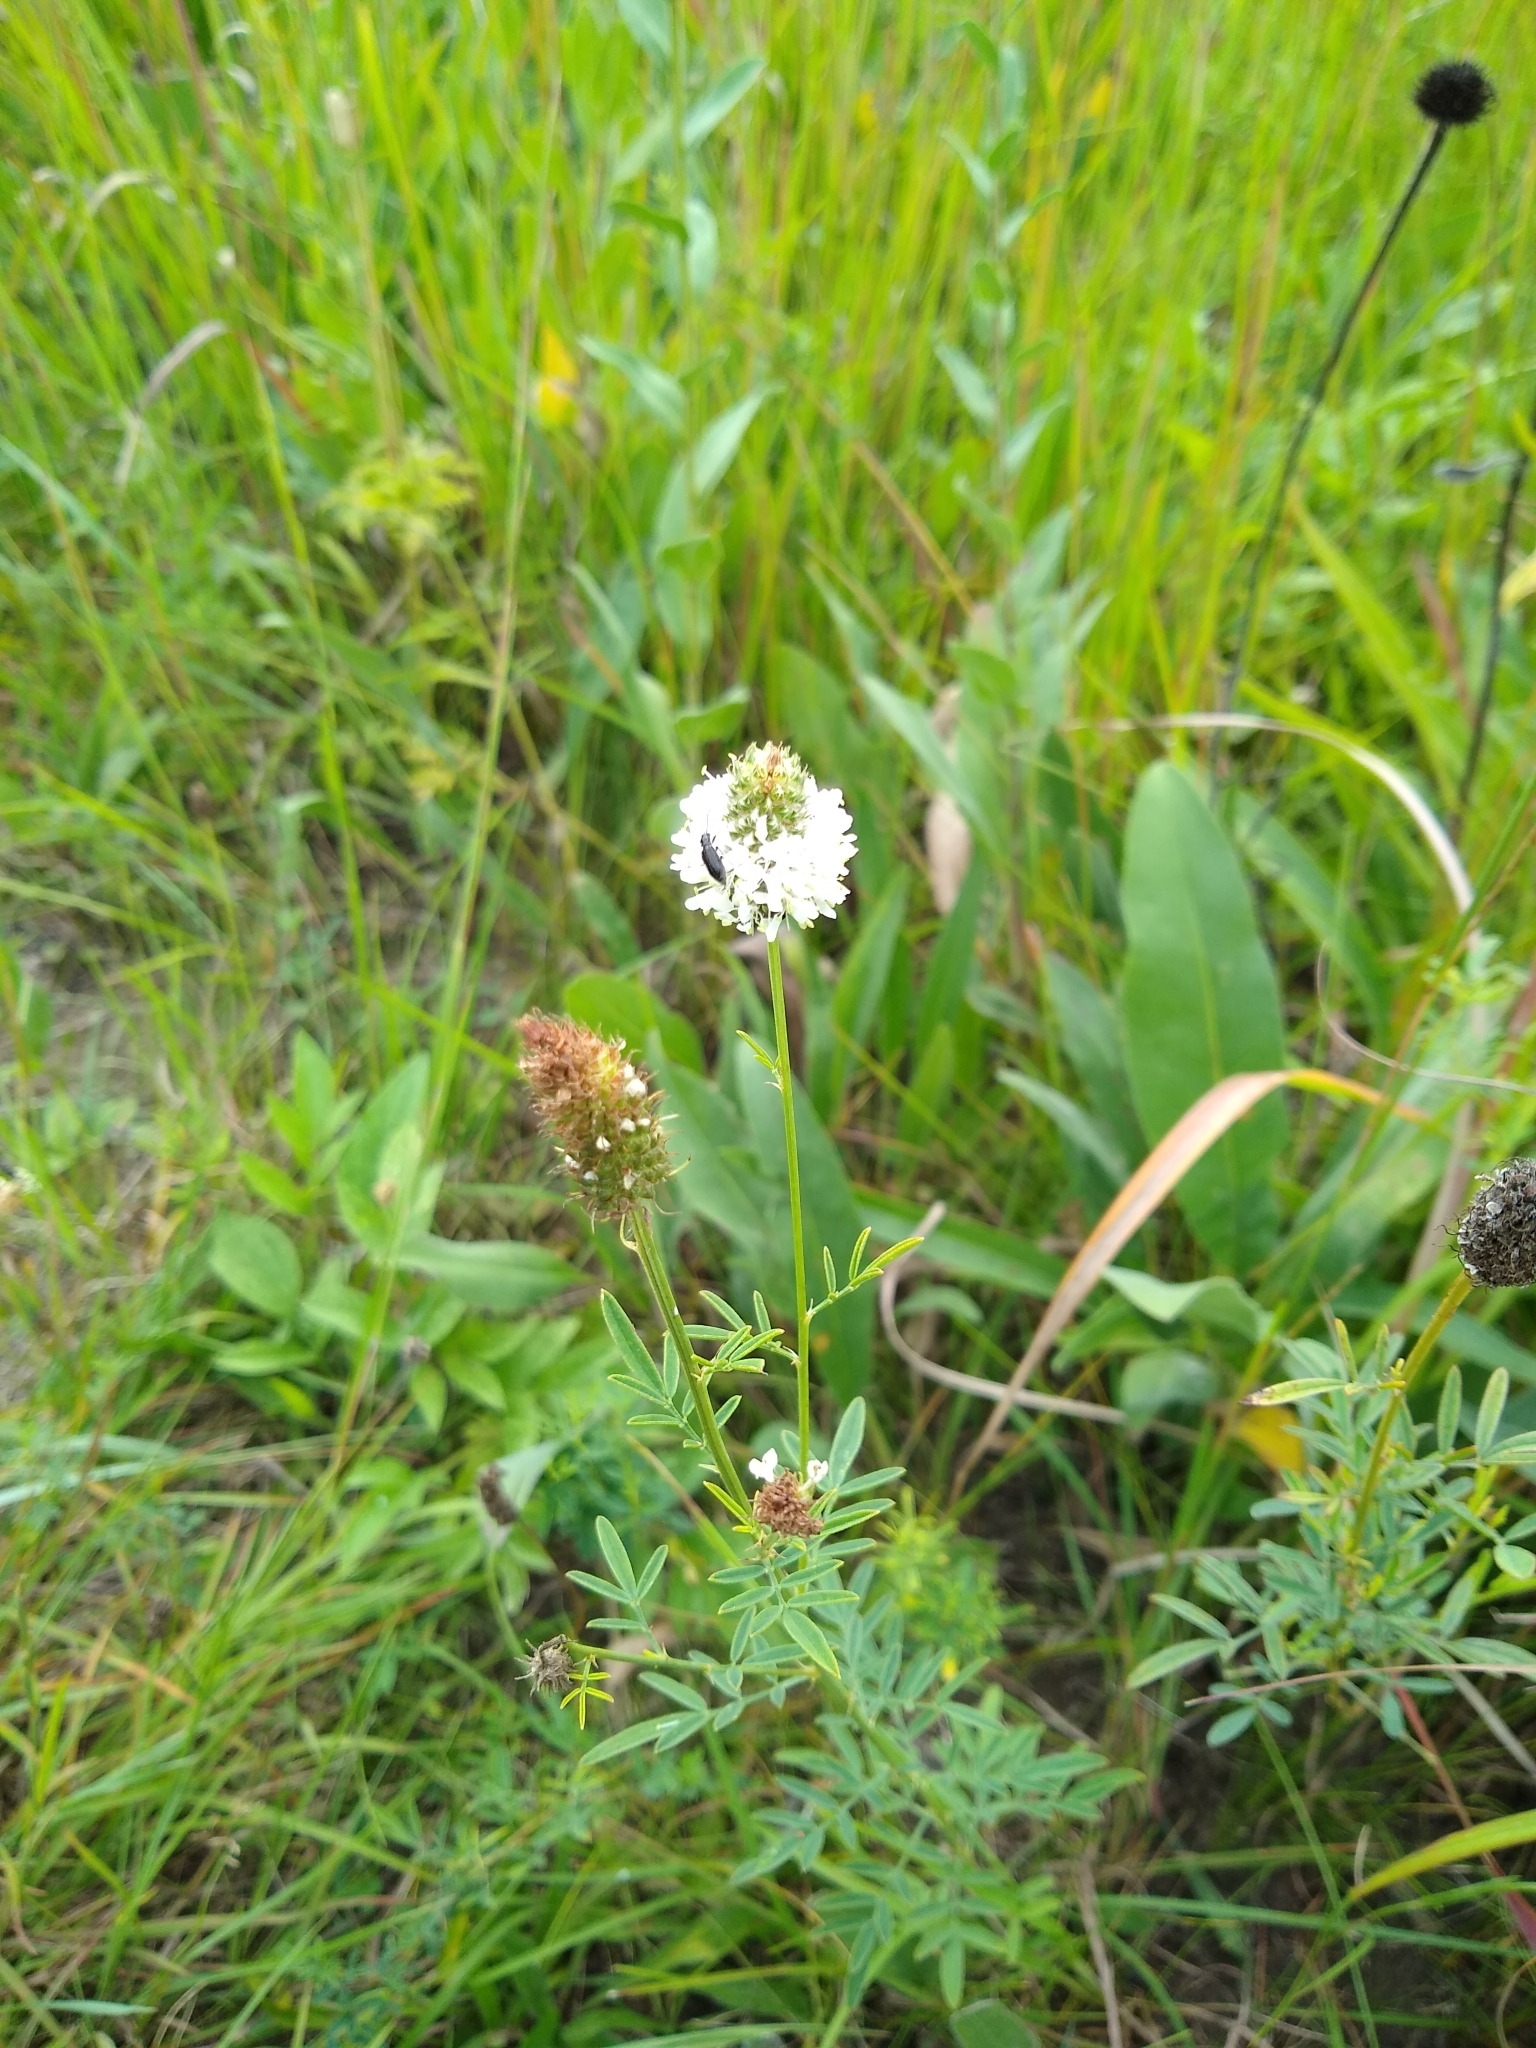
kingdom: Plantae
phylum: Tracheophyta
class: Magnoliopsida
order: Fabales
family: Fabaceae
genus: Dalea
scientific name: Dalea candida
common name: White prairie-clover
